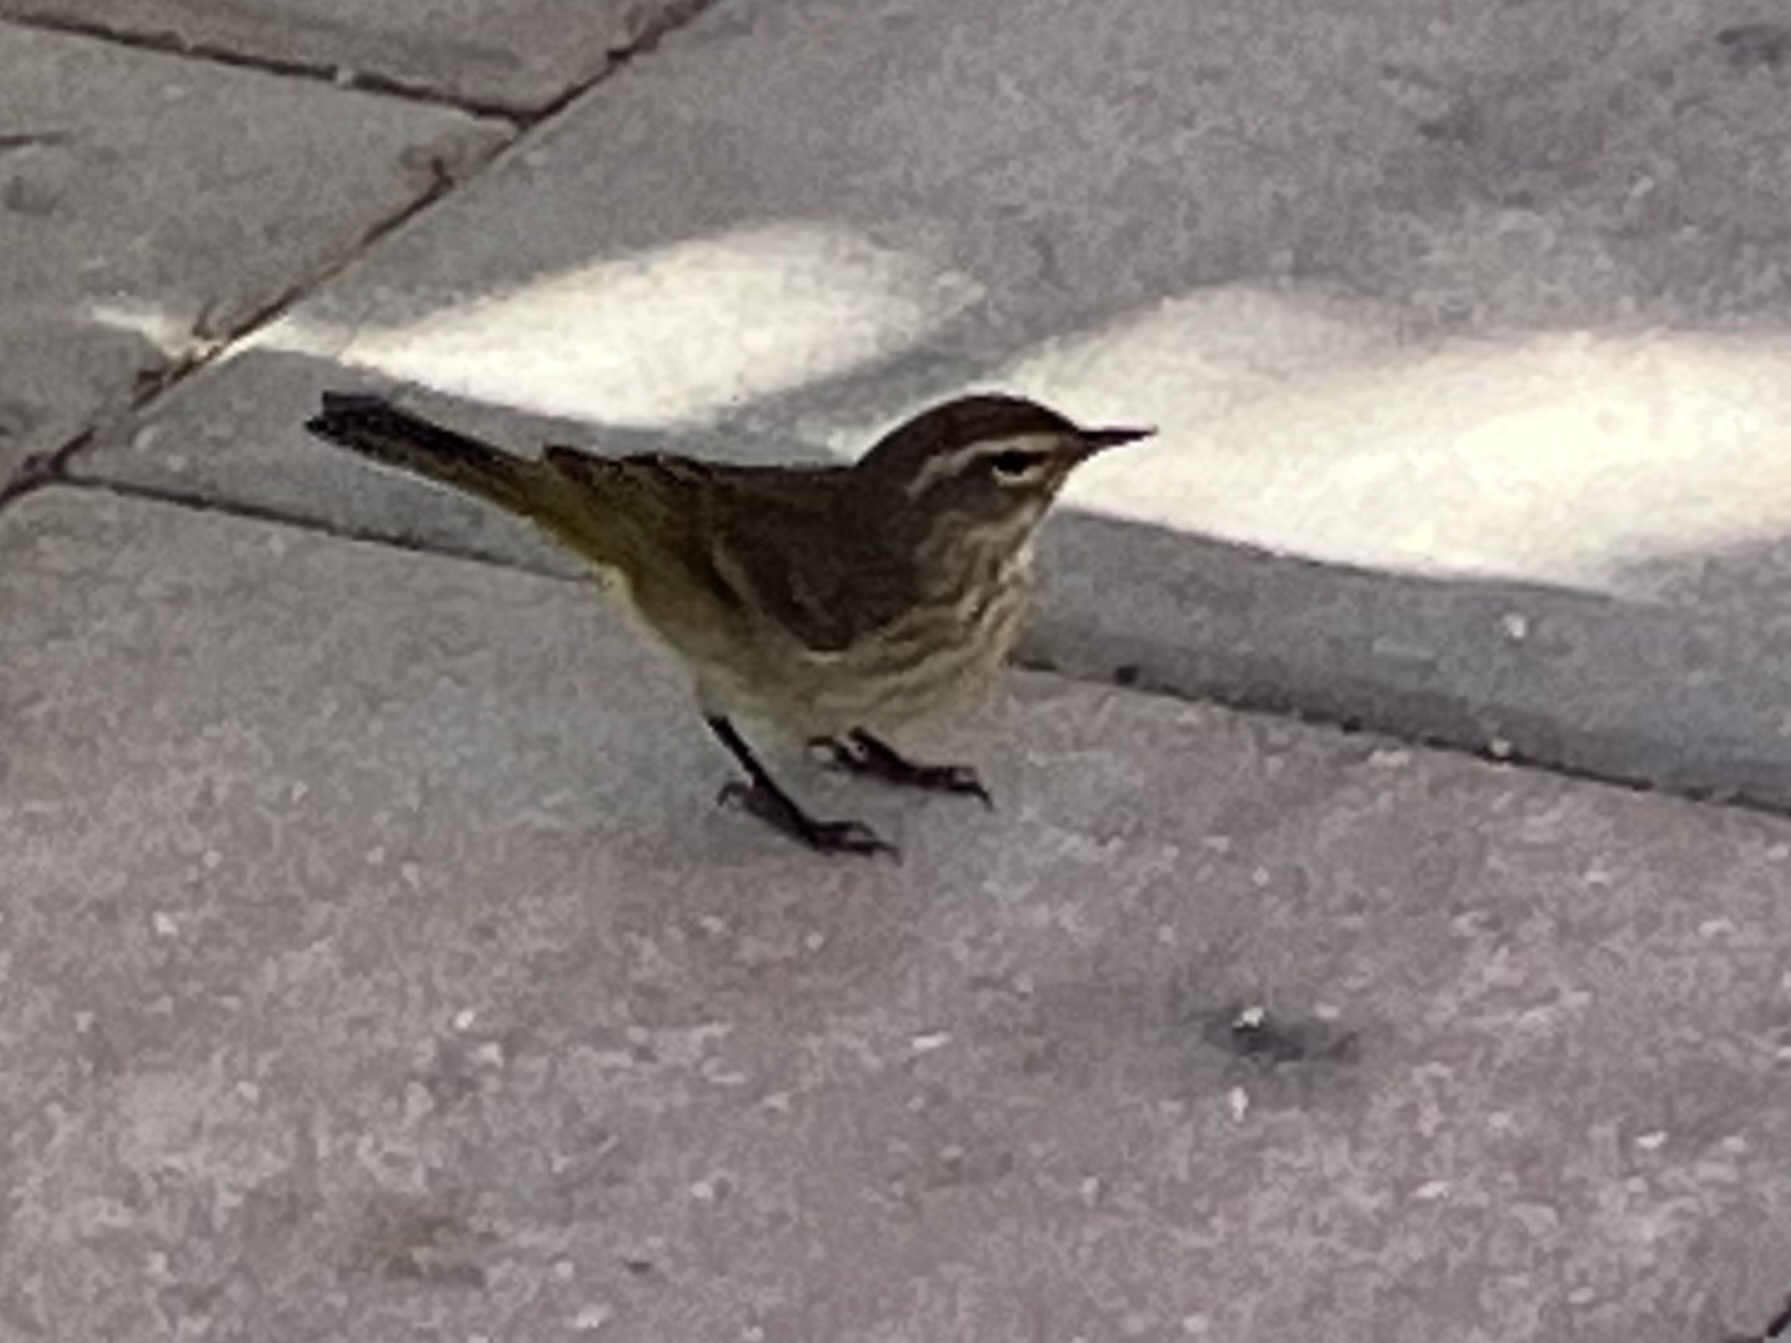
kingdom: Animalia
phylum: Chordata
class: Aves
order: Passeriformes
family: Parulidae
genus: Setophaga
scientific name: Setophaga palmarum
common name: Palm warbler
